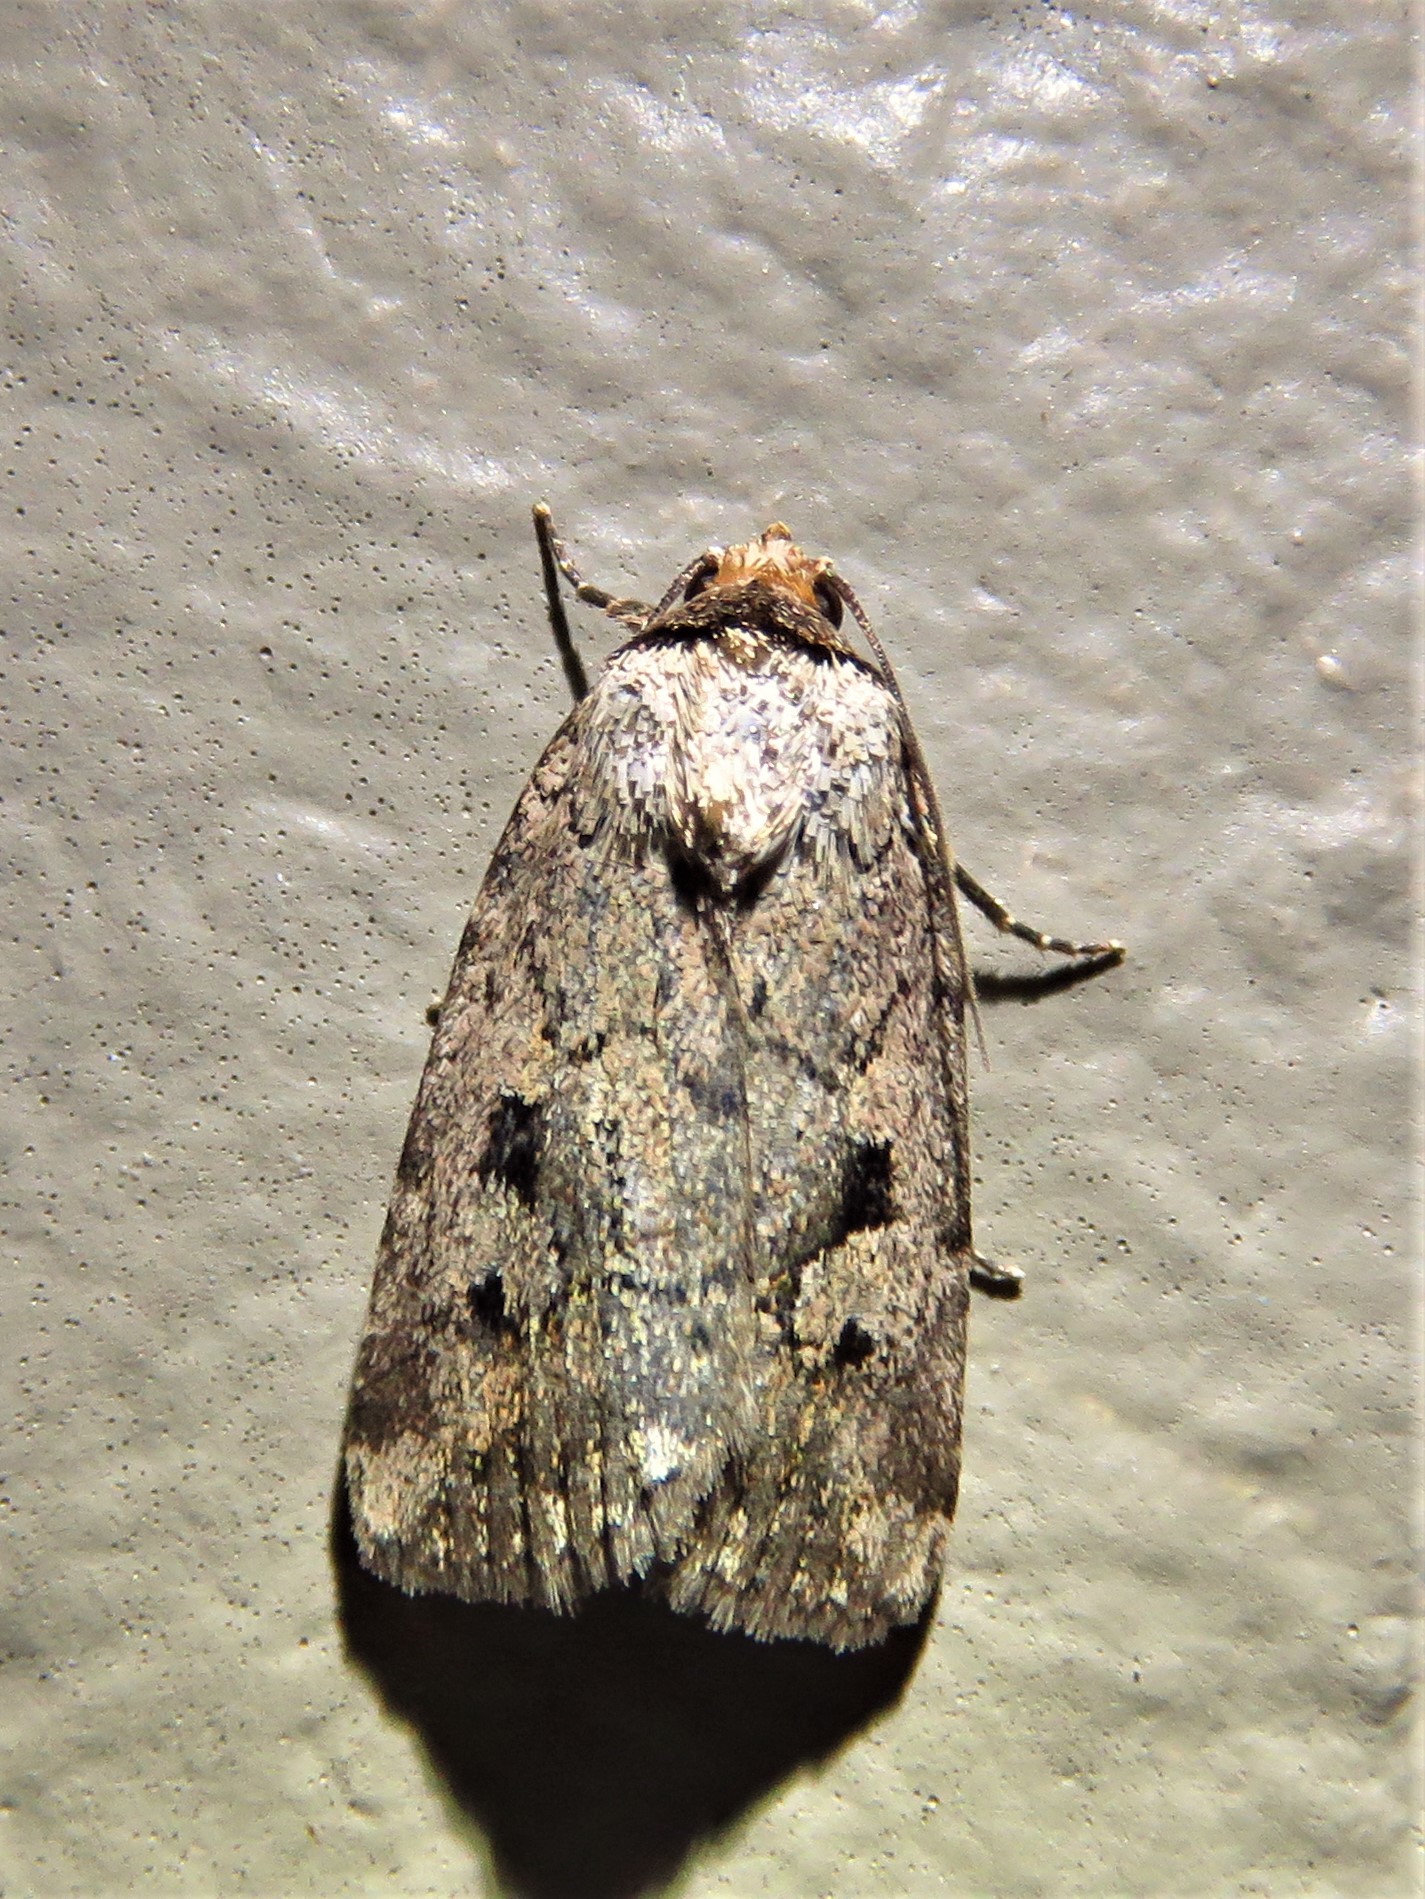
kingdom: Animalia
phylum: Arthropoda
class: Insecta
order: Lepidoptera
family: Noctuidae
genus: Elaphria
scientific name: Elaphria festivoides
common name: Festive midget
